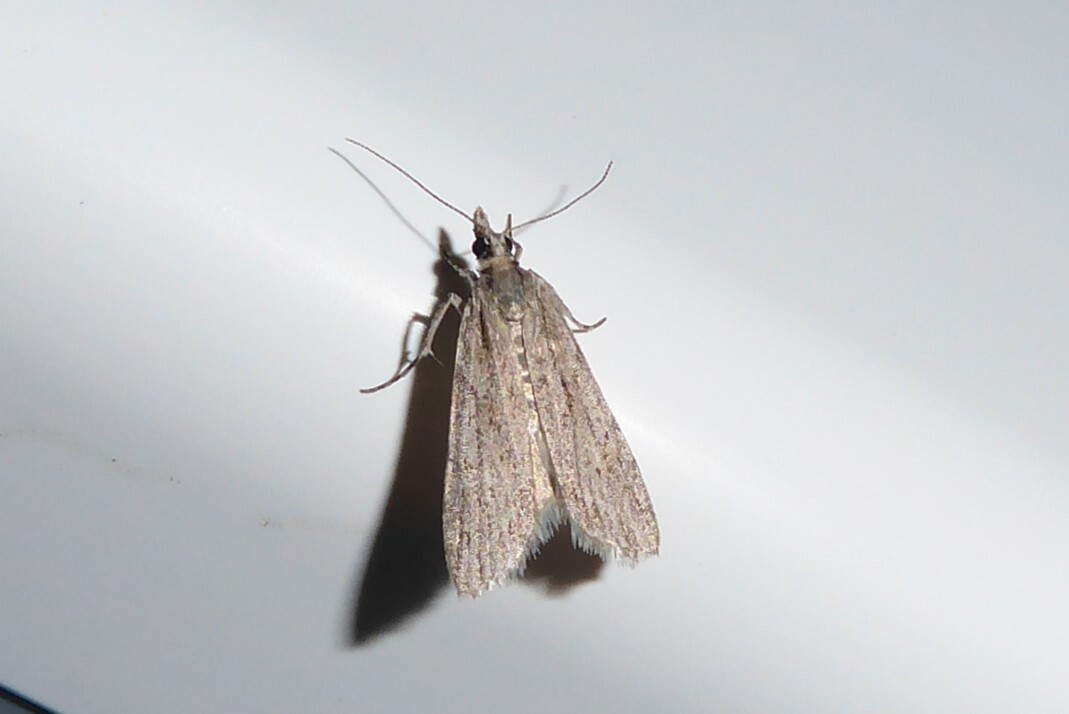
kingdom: Animalia
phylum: Arthropoda
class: Insecta
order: Lepidoptera
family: Crambidae
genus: Scoparia
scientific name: Scoparia chalicodes
